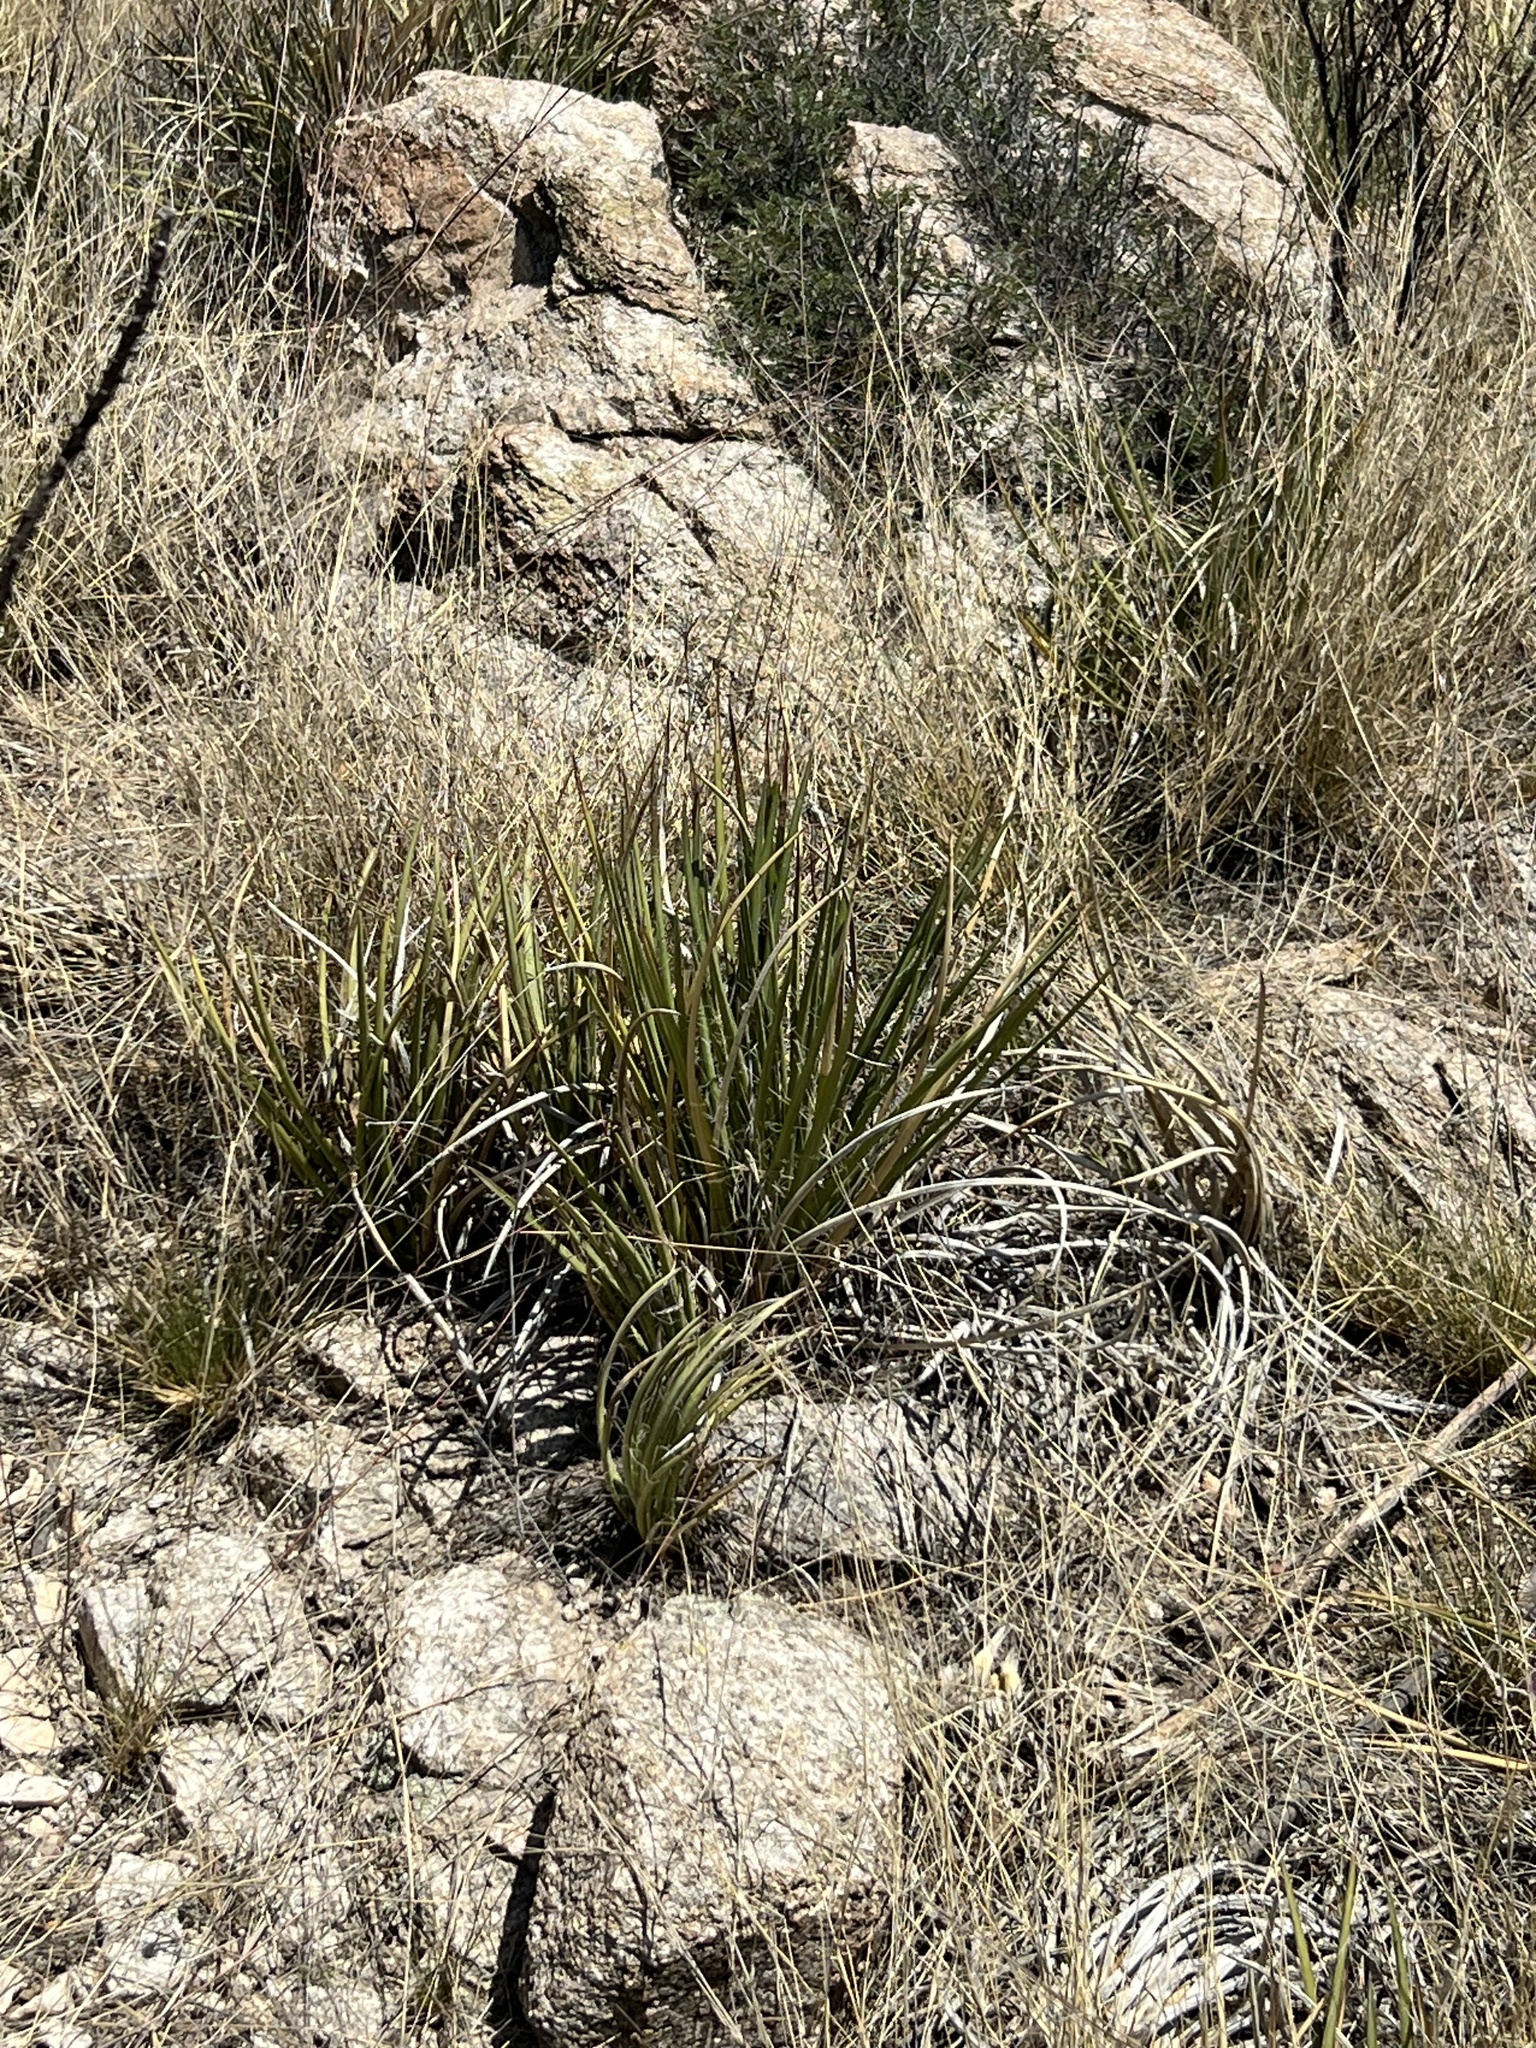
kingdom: Plantae
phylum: Tracheophyta
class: Liliopsida
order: Asparagales
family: Asparagaceae
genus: Agave
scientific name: Agave schottii
